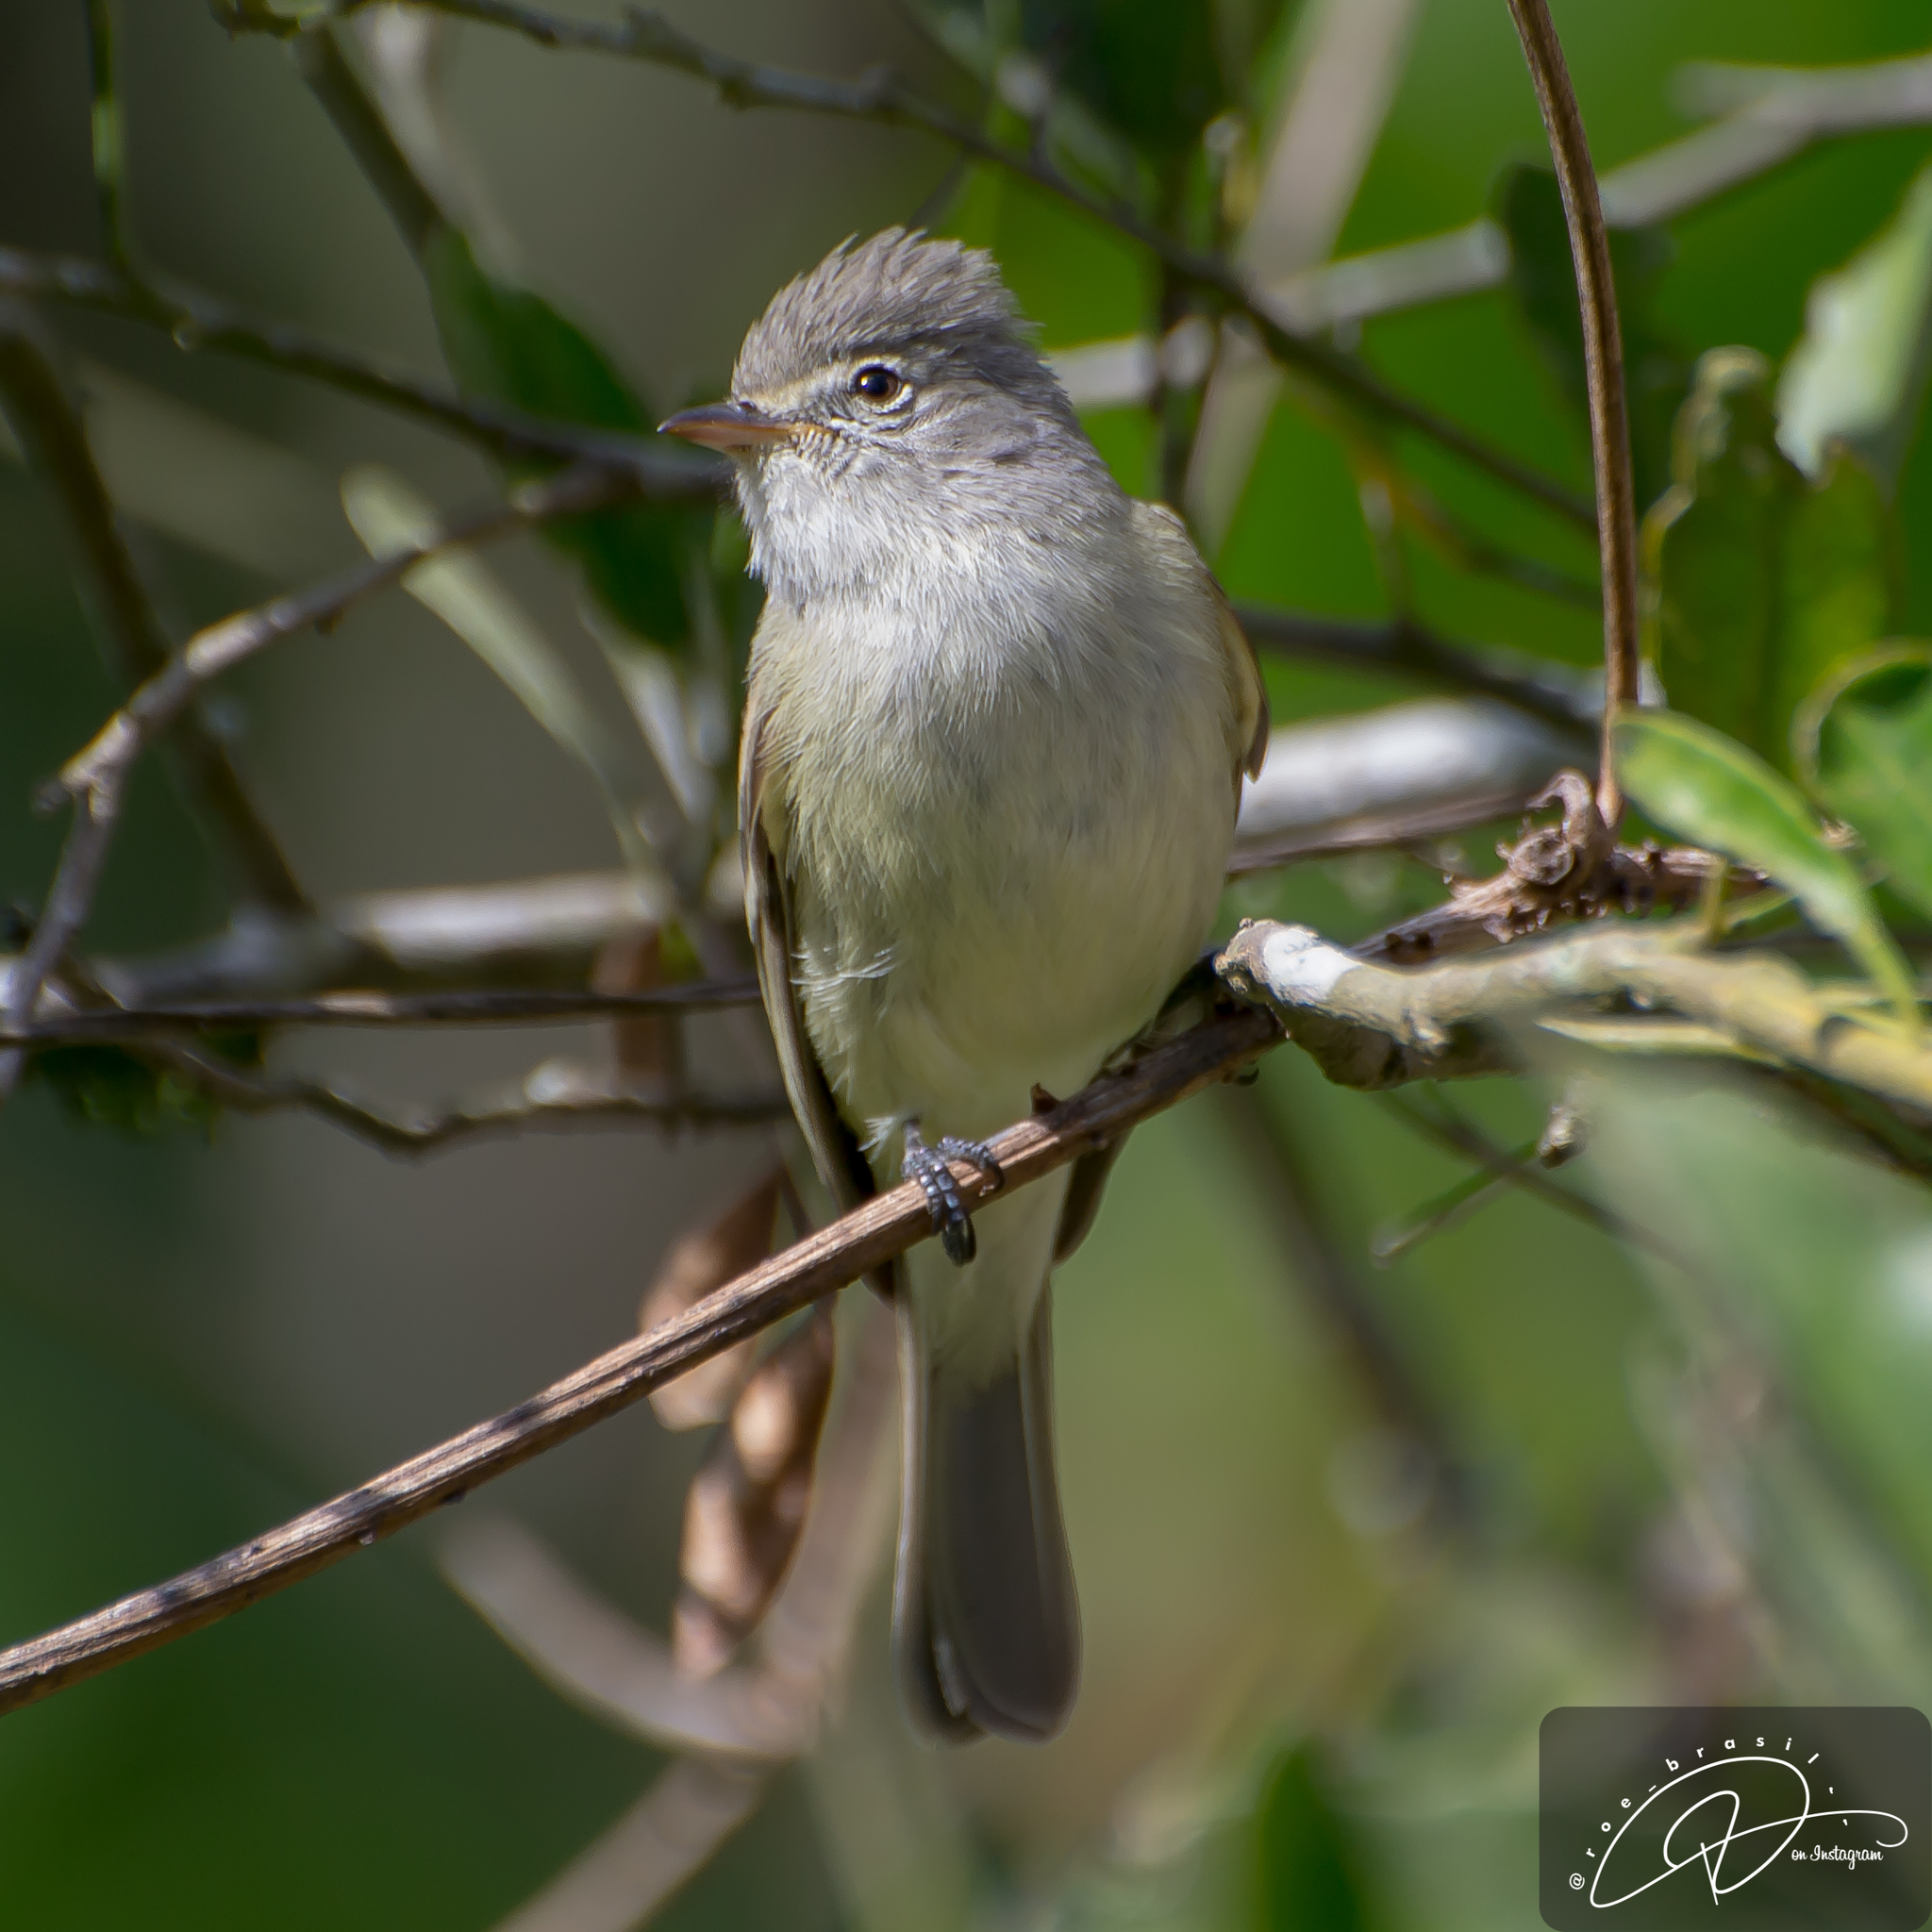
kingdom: Animalia
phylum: Chordata
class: Aves
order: Passeriformes
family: Tyrannidae
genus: Camptostoma
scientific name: Camptostoma obsoletum
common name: Southern beardless-tyrannulet
